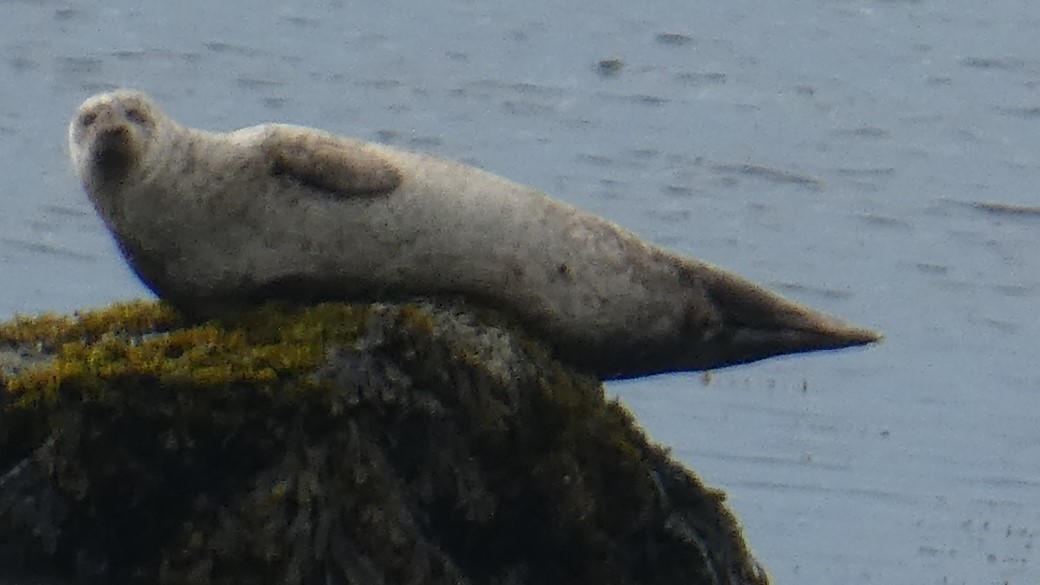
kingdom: Animalia
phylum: Chordata
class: Mammalia
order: Carnivora
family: Phocidae
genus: Phoca
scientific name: Phoca vitulina
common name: Harbor seal
